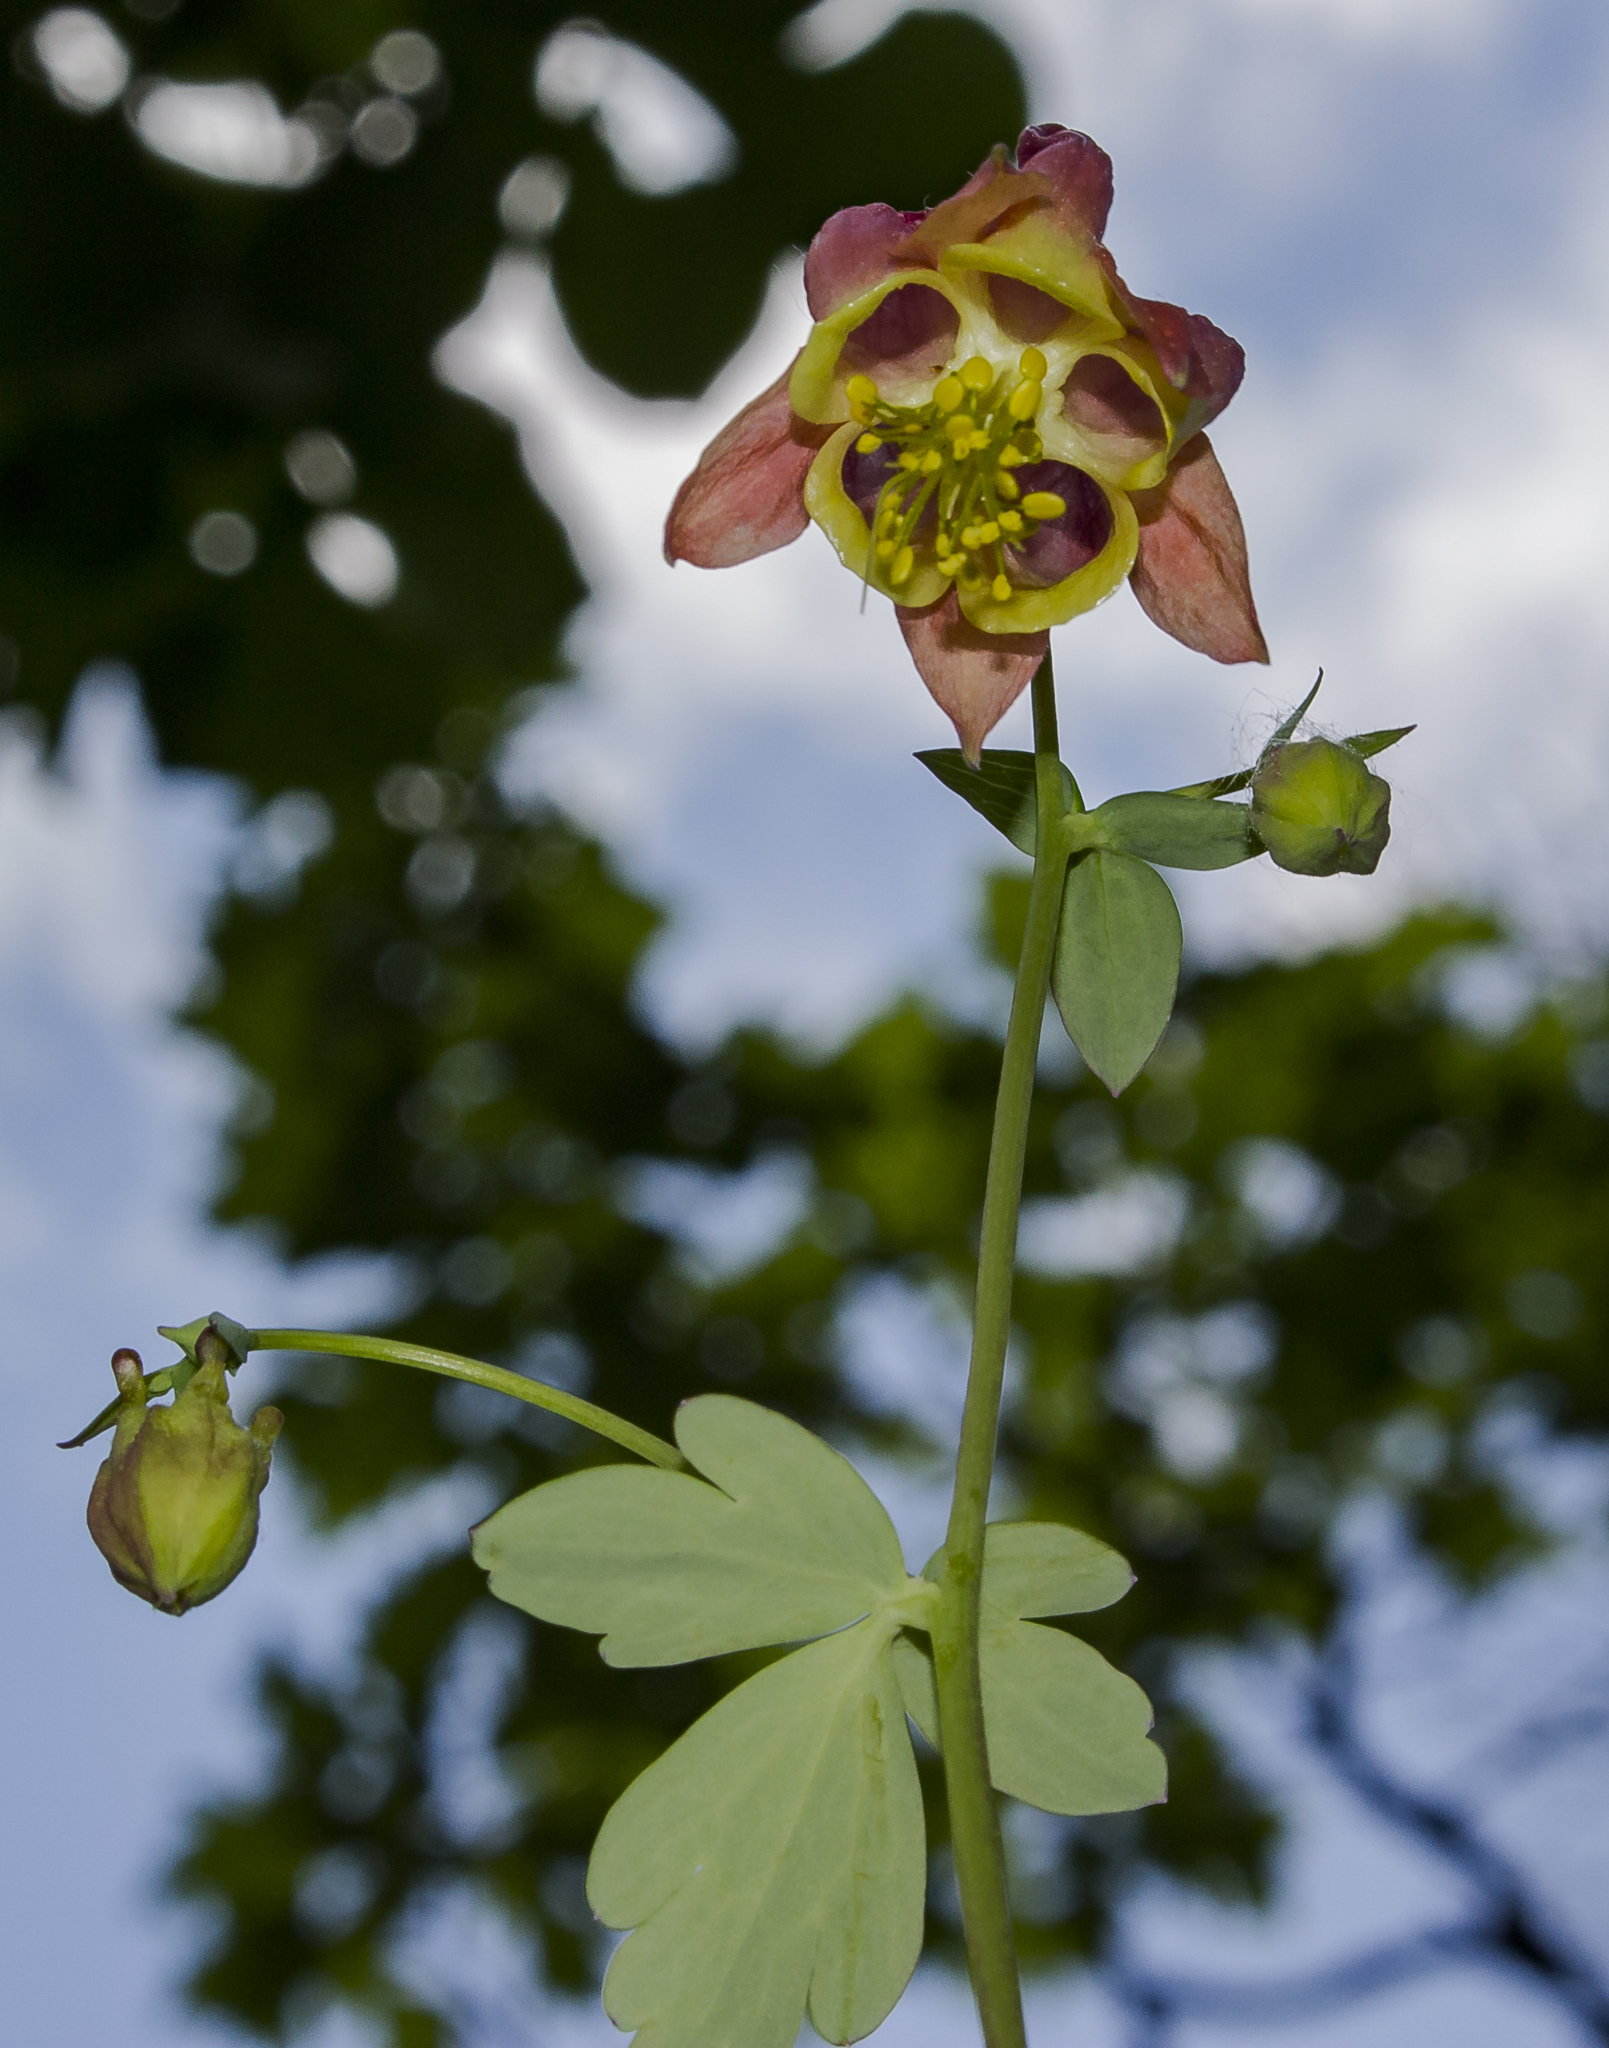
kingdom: Plantae
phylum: Tracheophyta
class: Magnoliopsida
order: Ranunculales
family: Ranunculaceae
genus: Aquilegia
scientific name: Aquilegia canadensis
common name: American columbine
